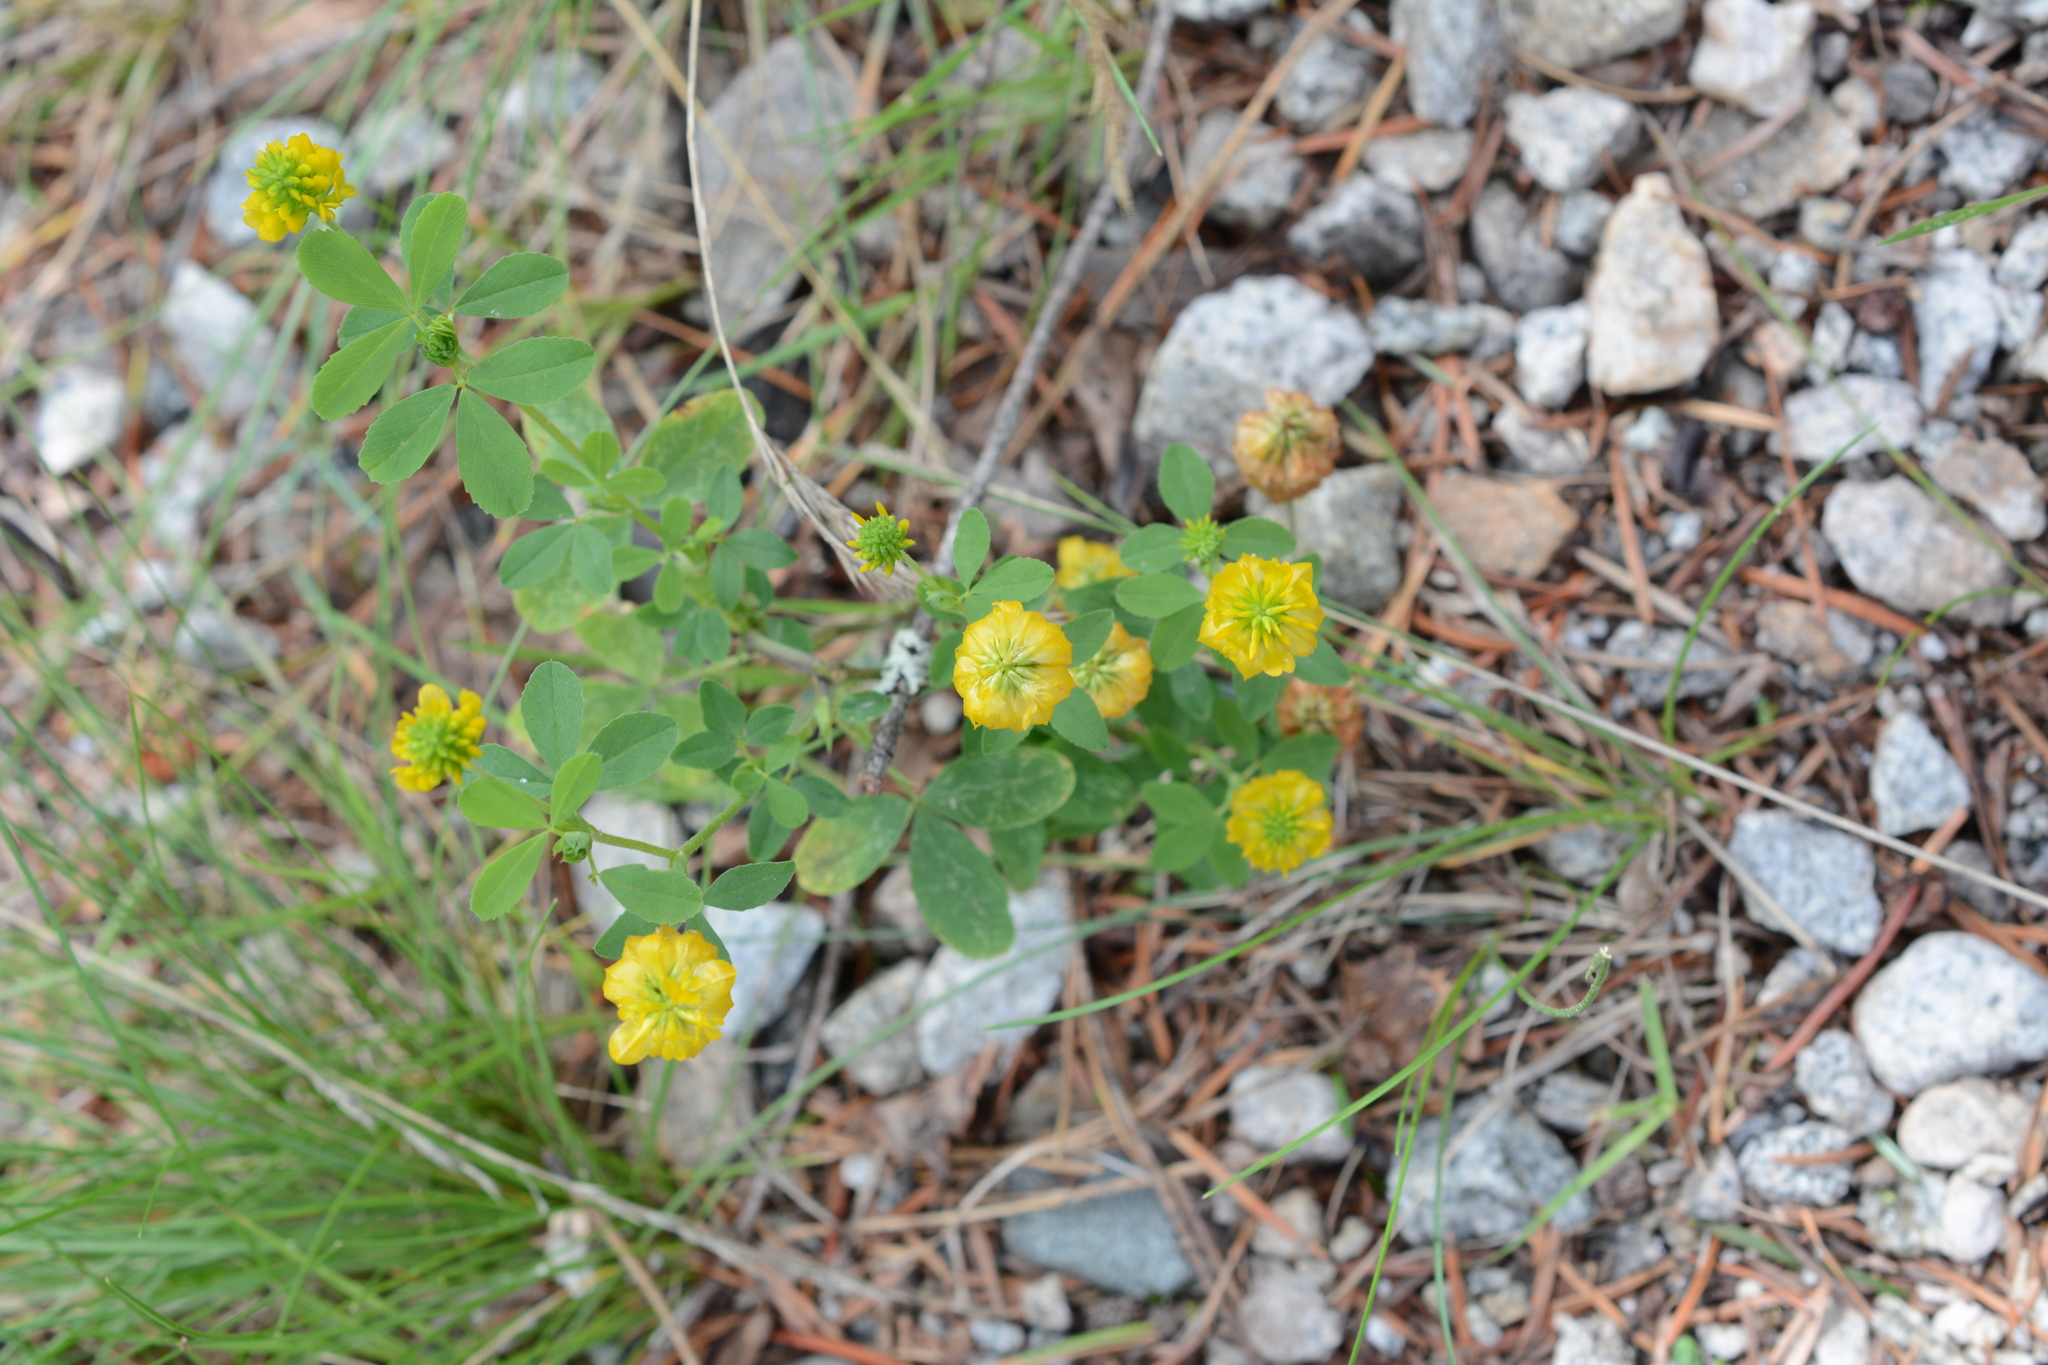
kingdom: Plantae
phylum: Tracheophyta
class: Magnoliopsida
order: Fabales
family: Fabaceae
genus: Trifolium
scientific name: Trifolium aureum
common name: Golden clover
